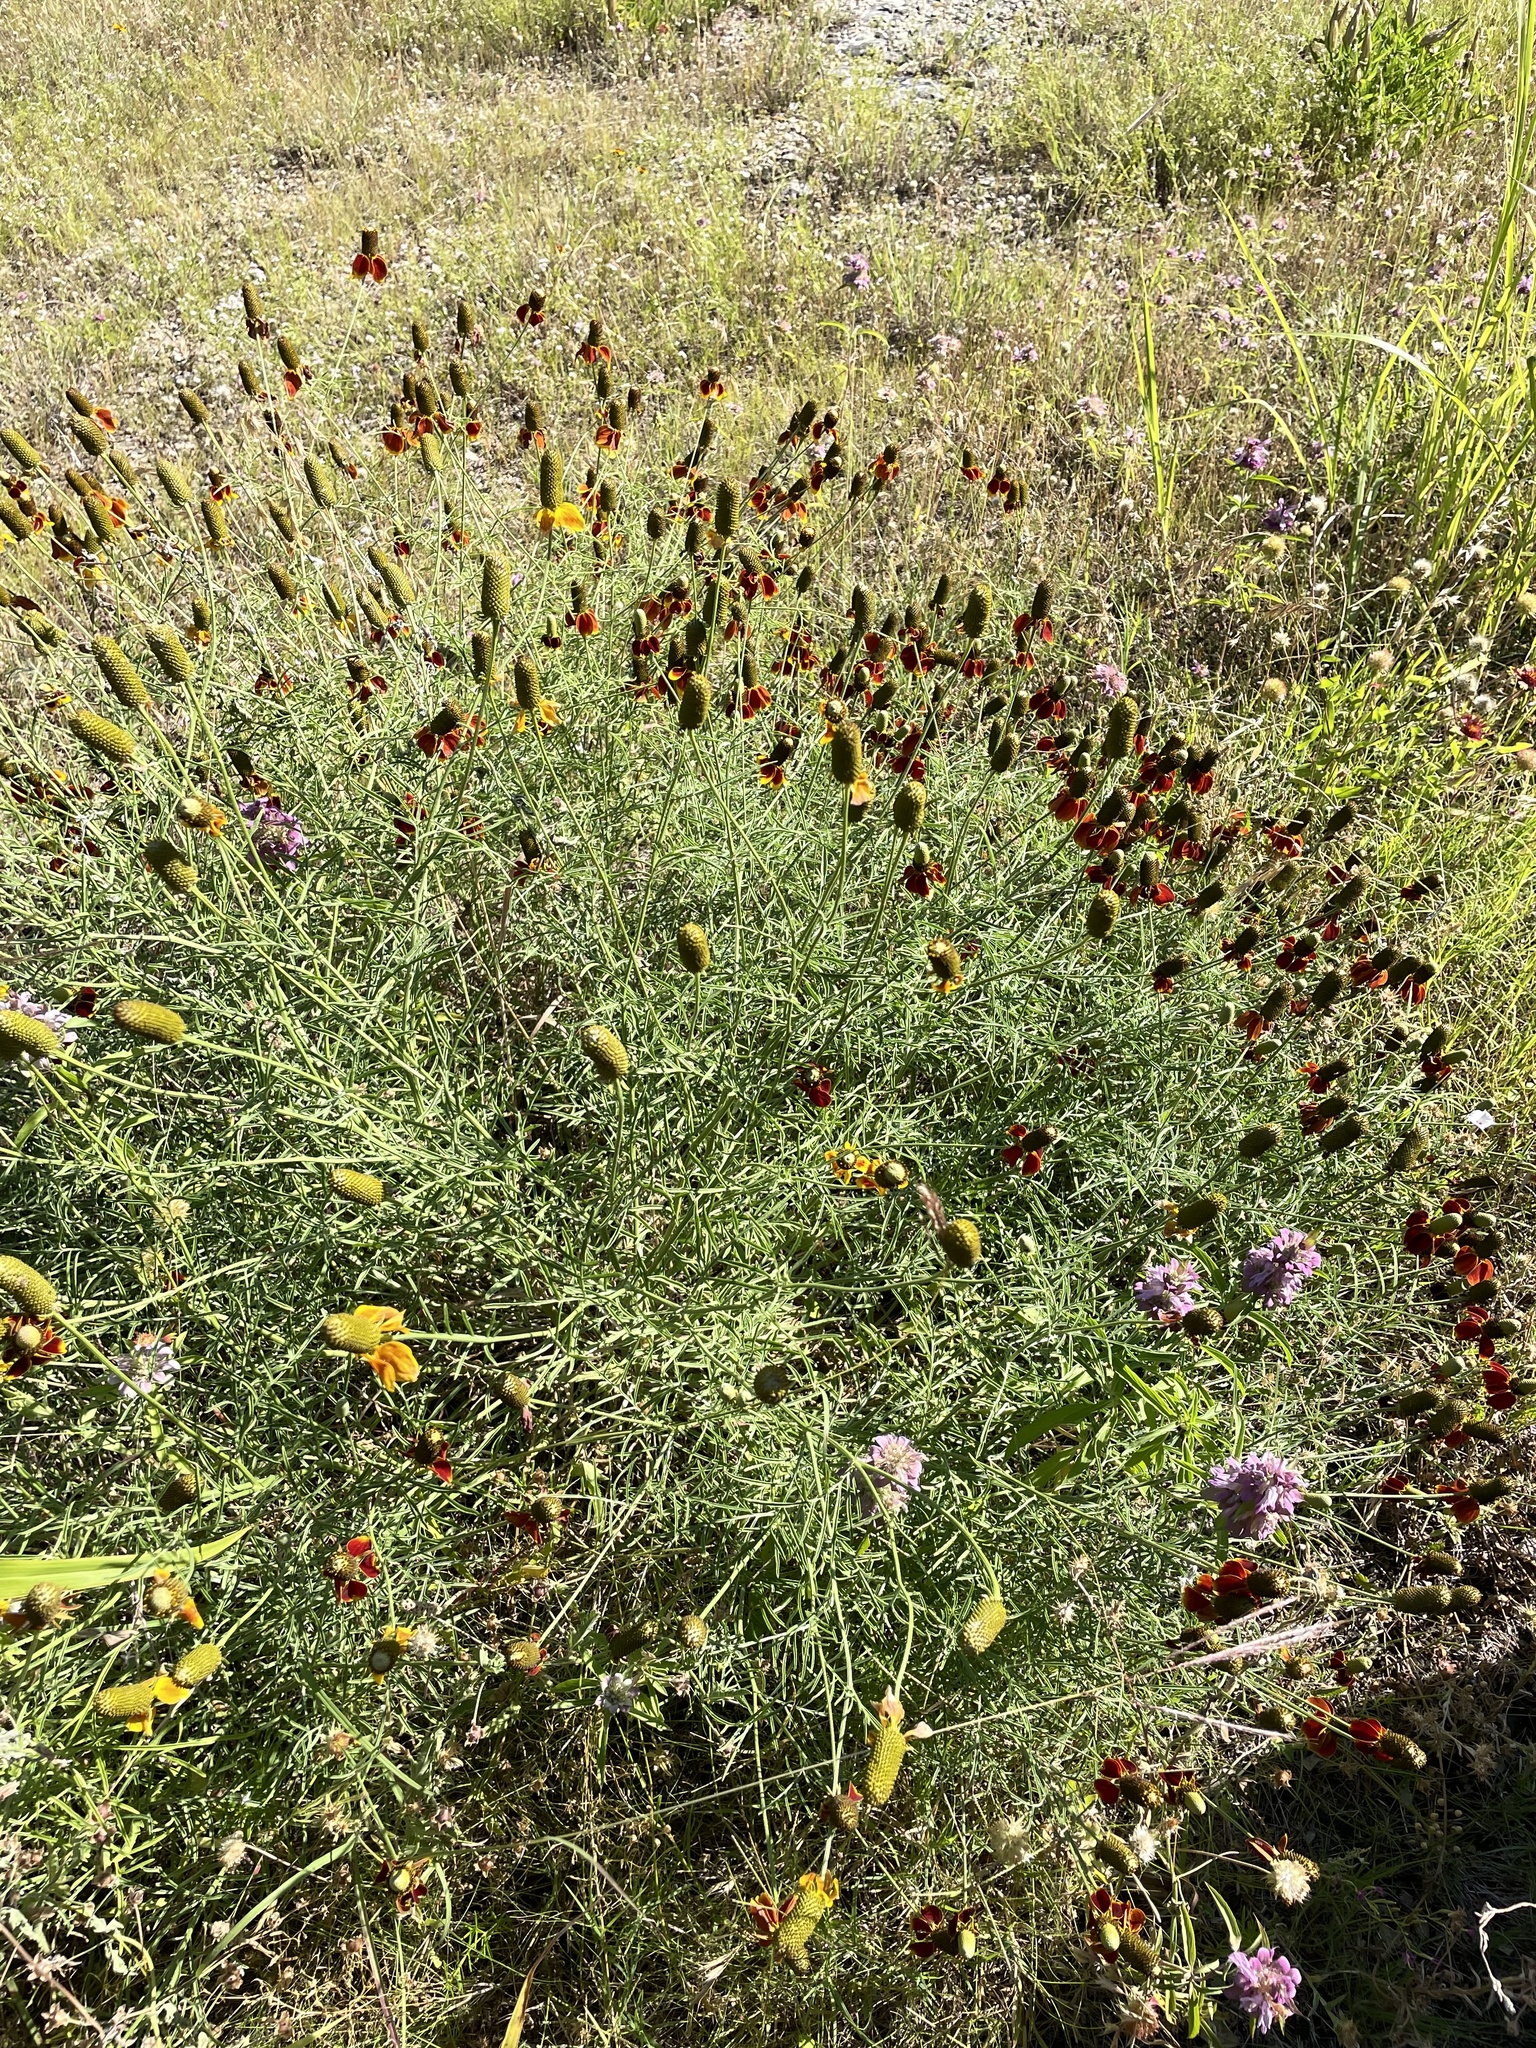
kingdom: Plantae
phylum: Tracheophyta
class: Magnoliopsida
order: Asterales
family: Asteraceae
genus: Ratibida
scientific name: Ratibida columnifera
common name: Prairie coneflower
